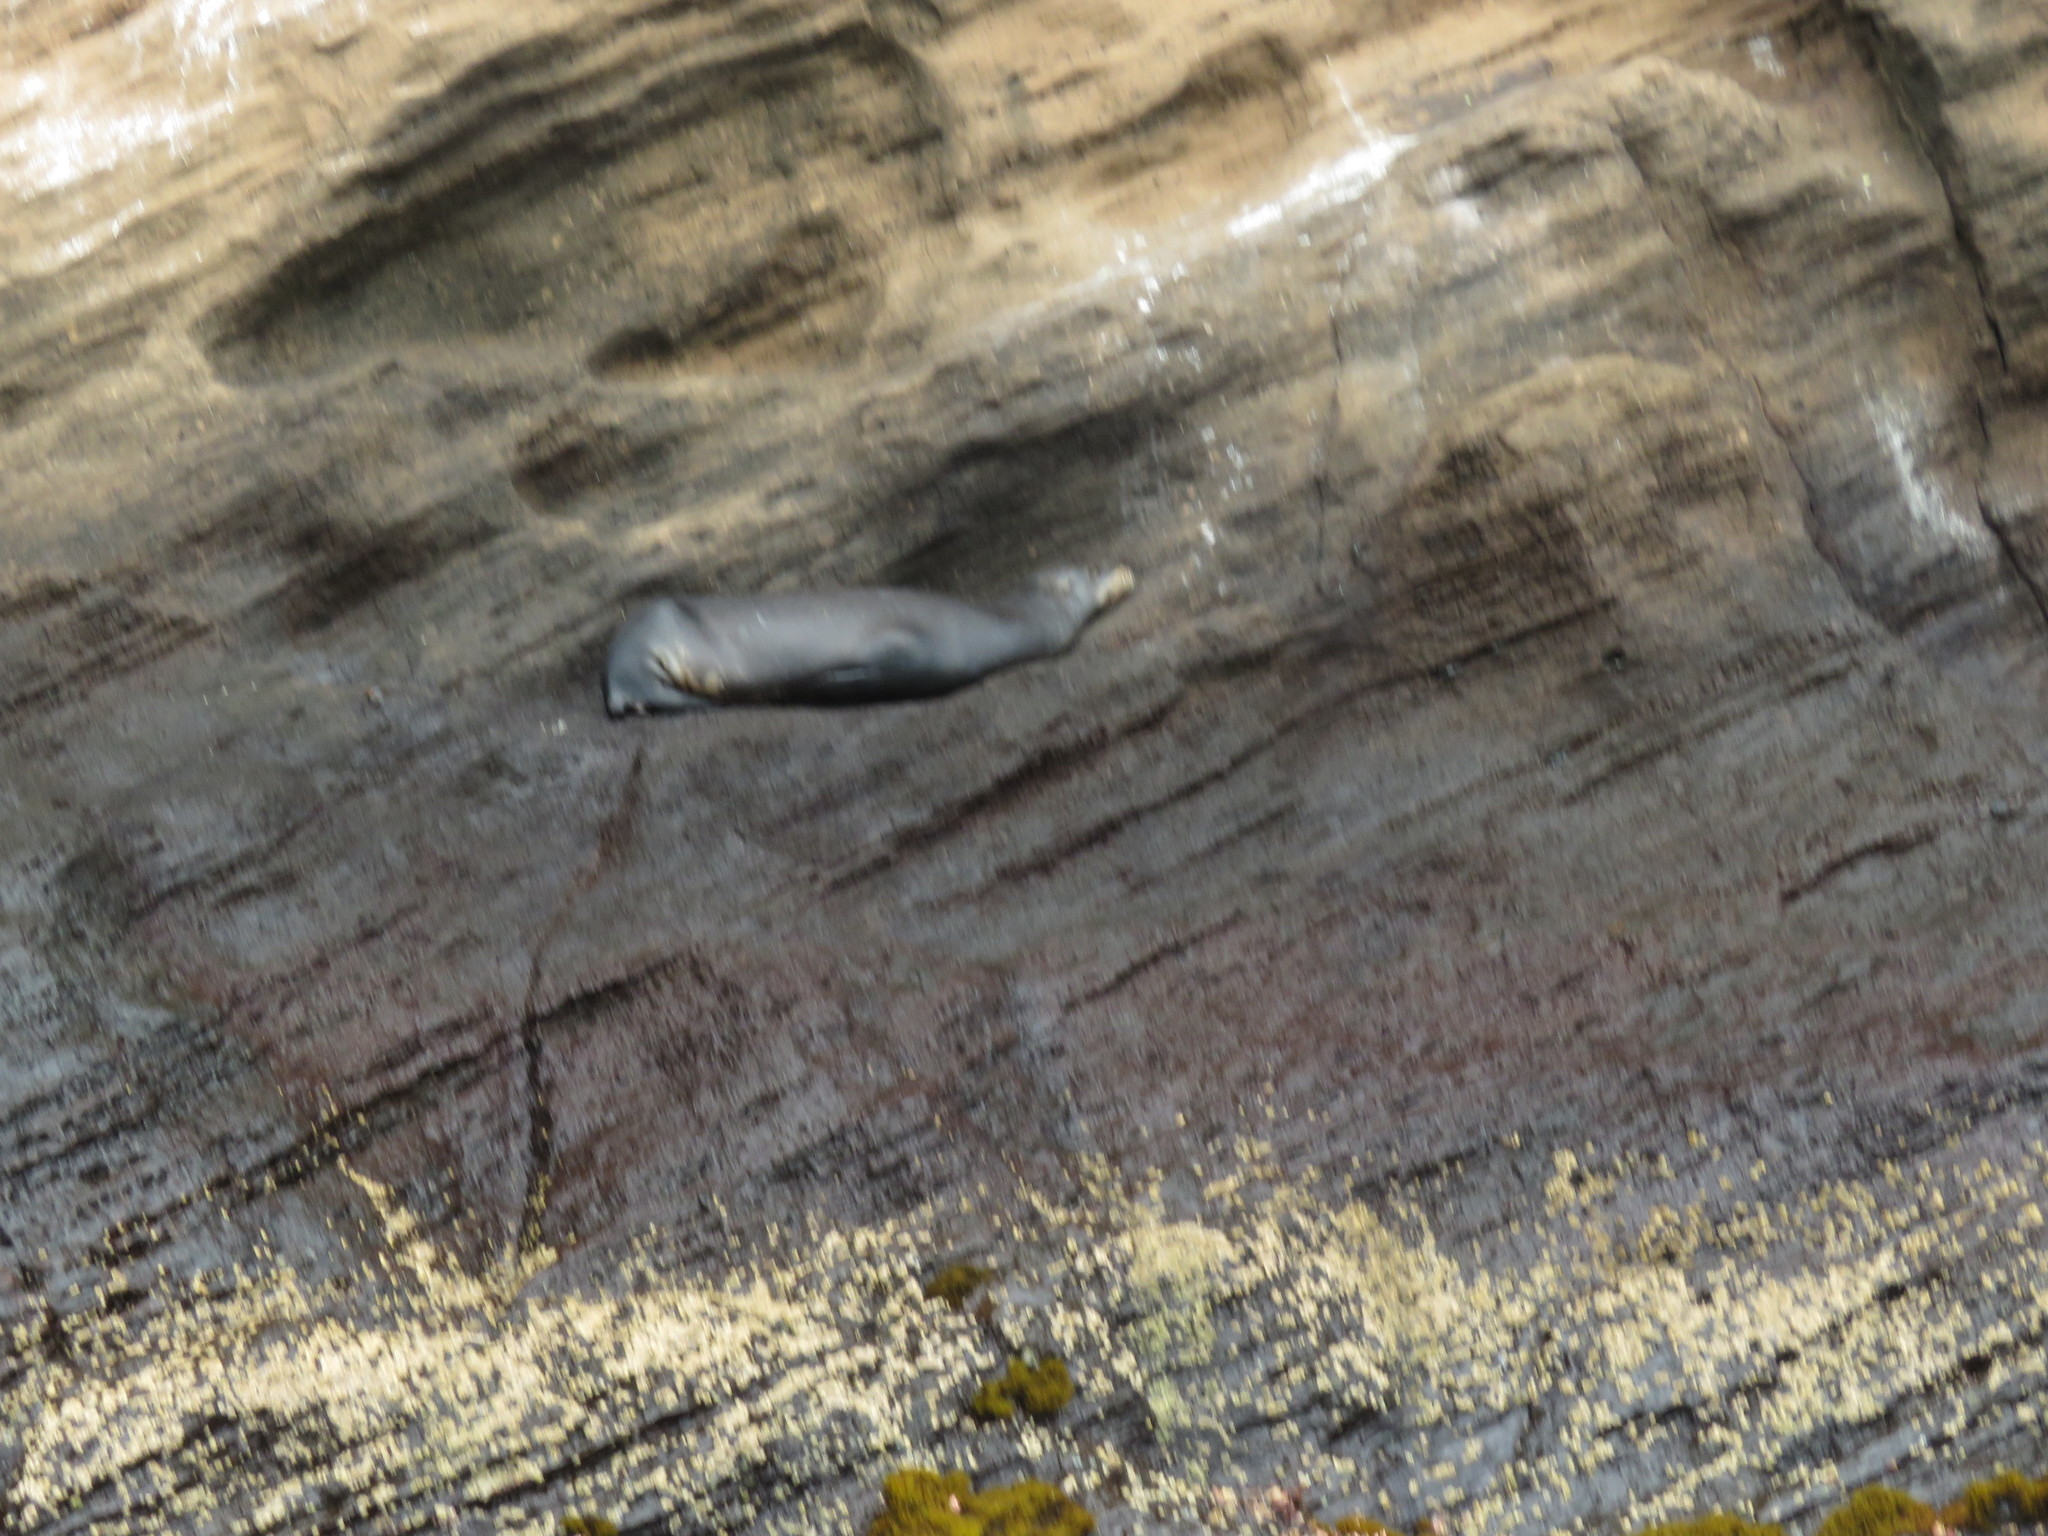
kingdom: Animalia
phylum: Chordata
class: Mammalia
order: Carnivora
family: Otariidae
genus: Zalophus
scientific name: Zalophus wollebaeki
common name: Galapagos sea lion
